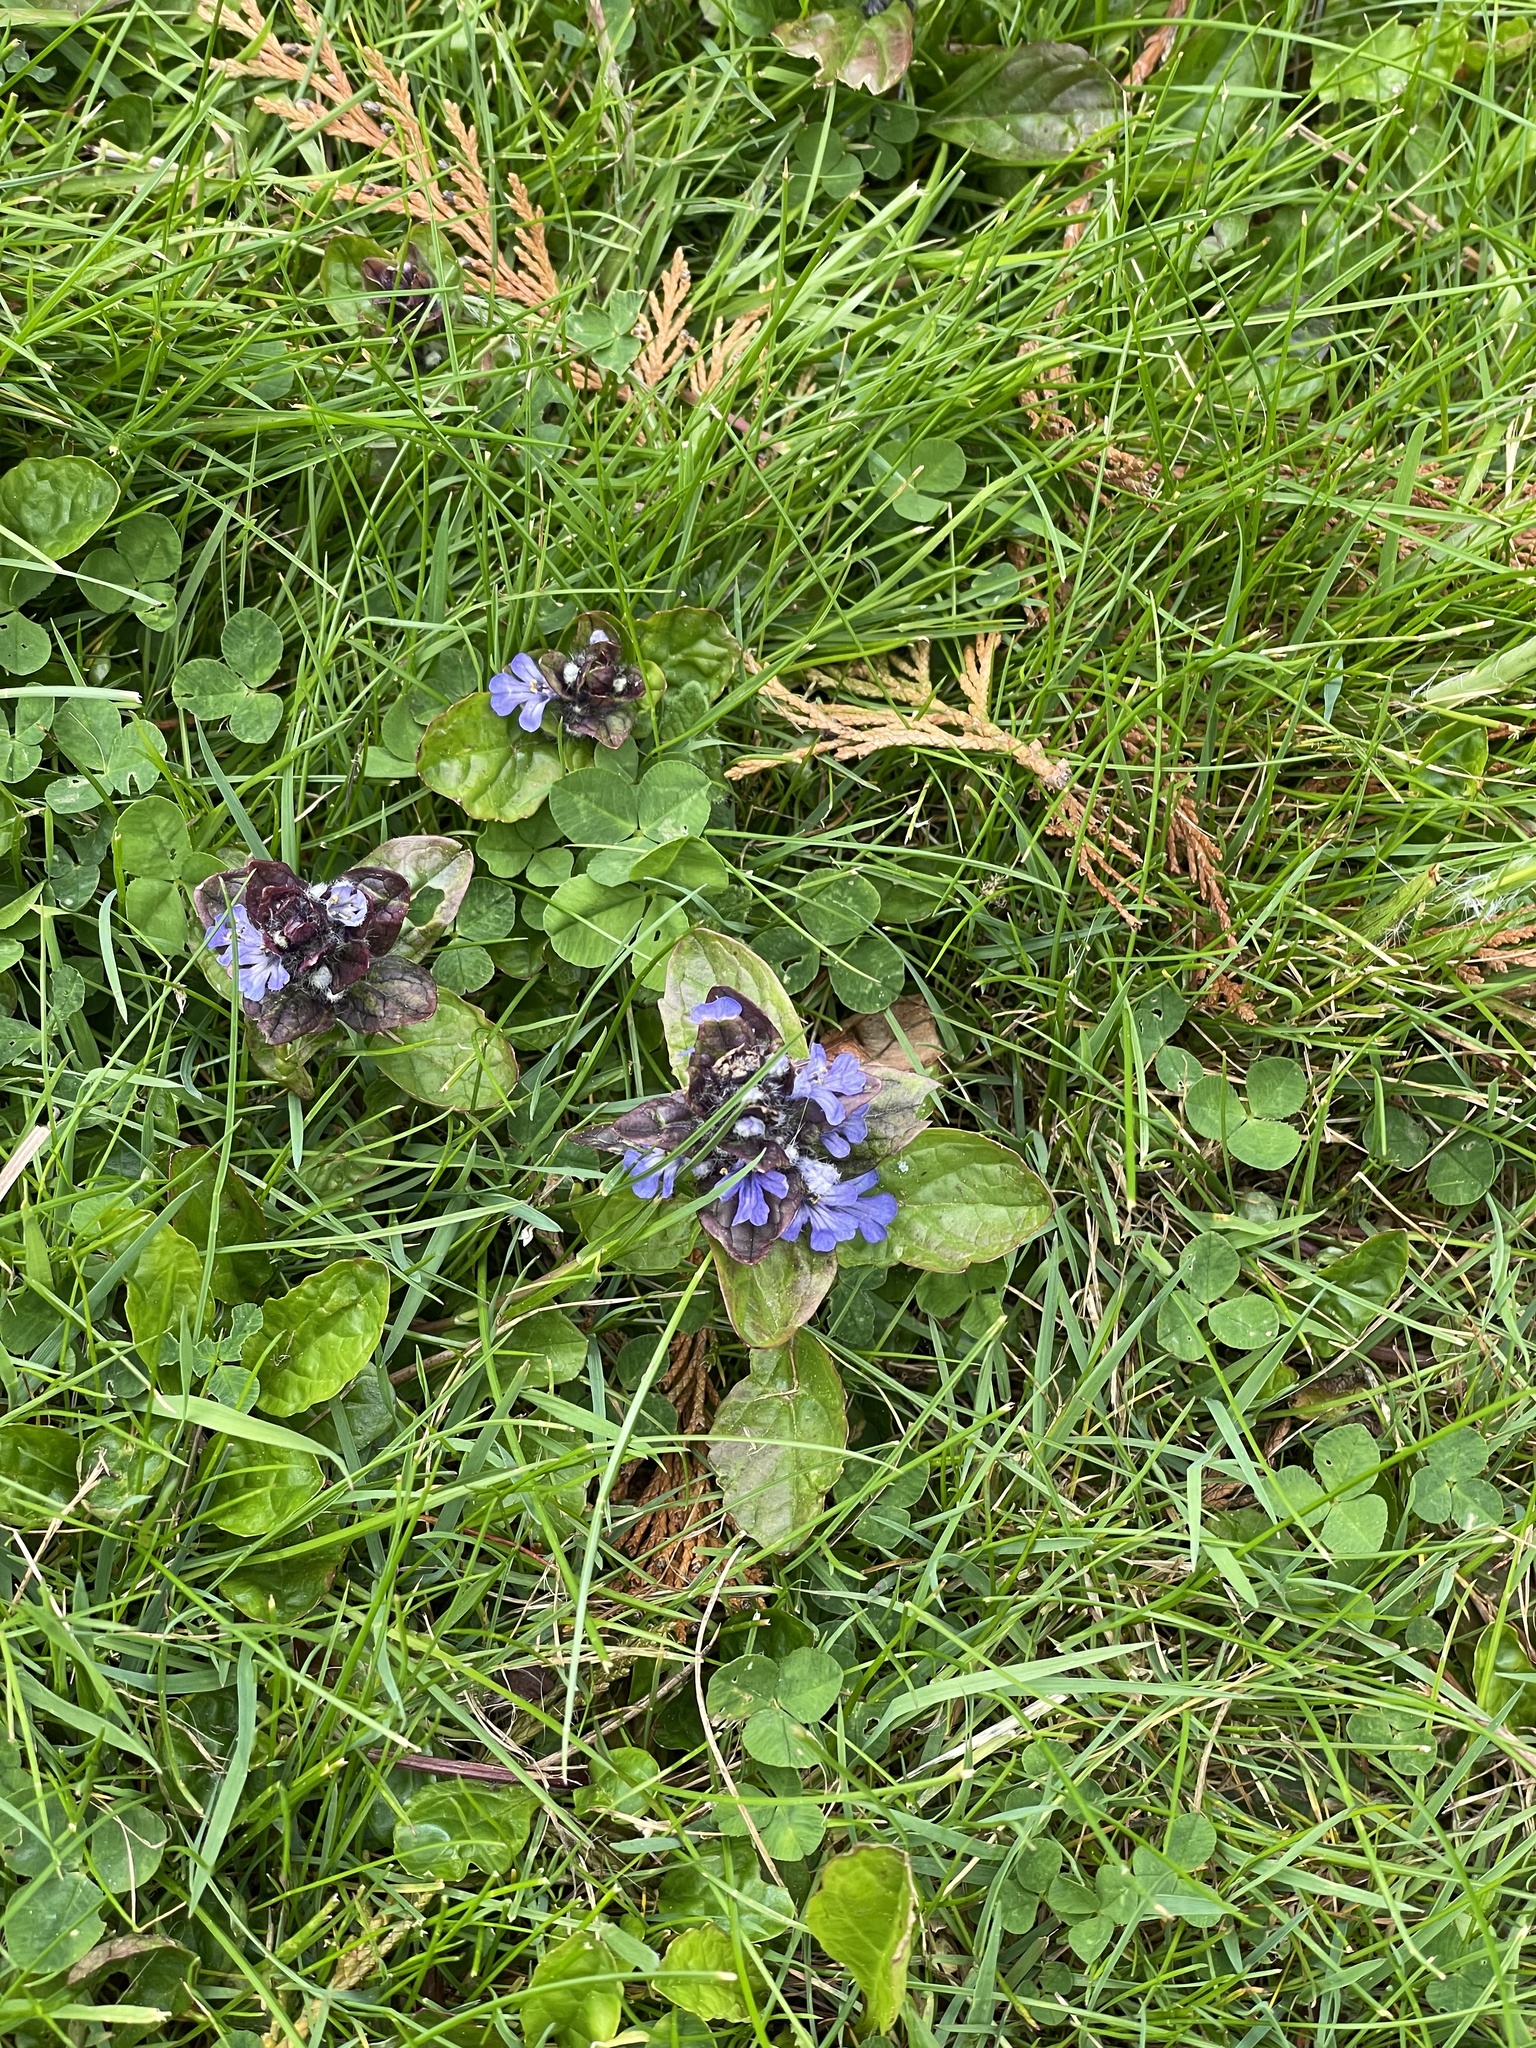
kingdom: Plantae
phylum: Tracheophyta
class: Magnoliopsida
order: Lamiales
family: Lamiaceae
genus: Ajuga
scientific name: Ajuga reptans
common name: Bugle
